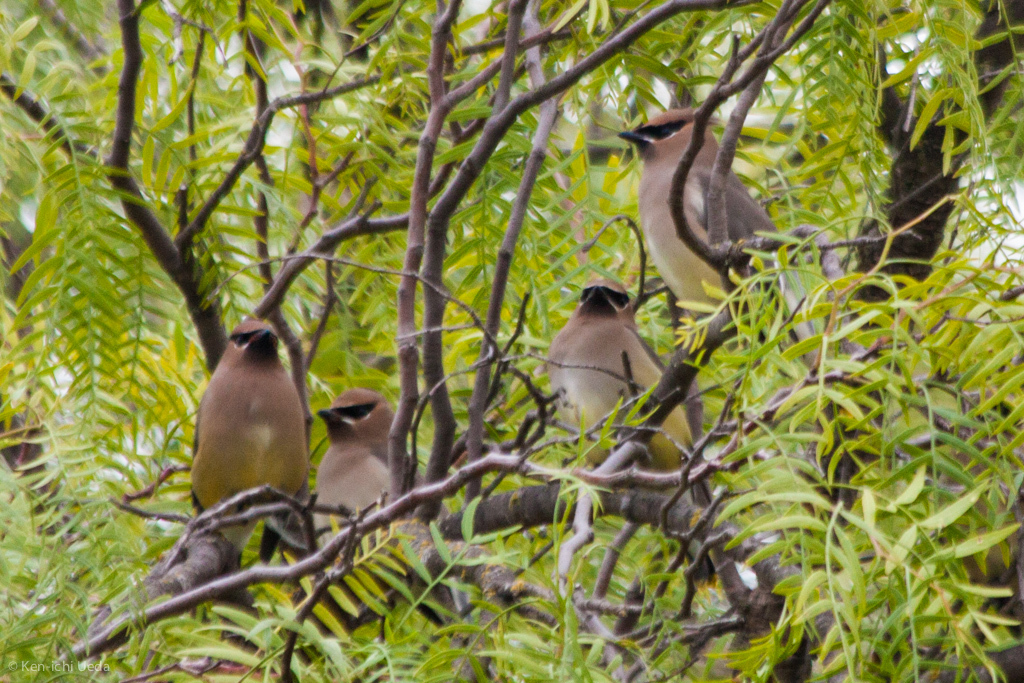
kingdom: Animalia
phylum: Chordata
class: Aves
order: Passeriformes
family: Bombycillidae
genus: Bombycilla
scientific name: Bombycilla cedrorum
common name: Cedar waxwing
